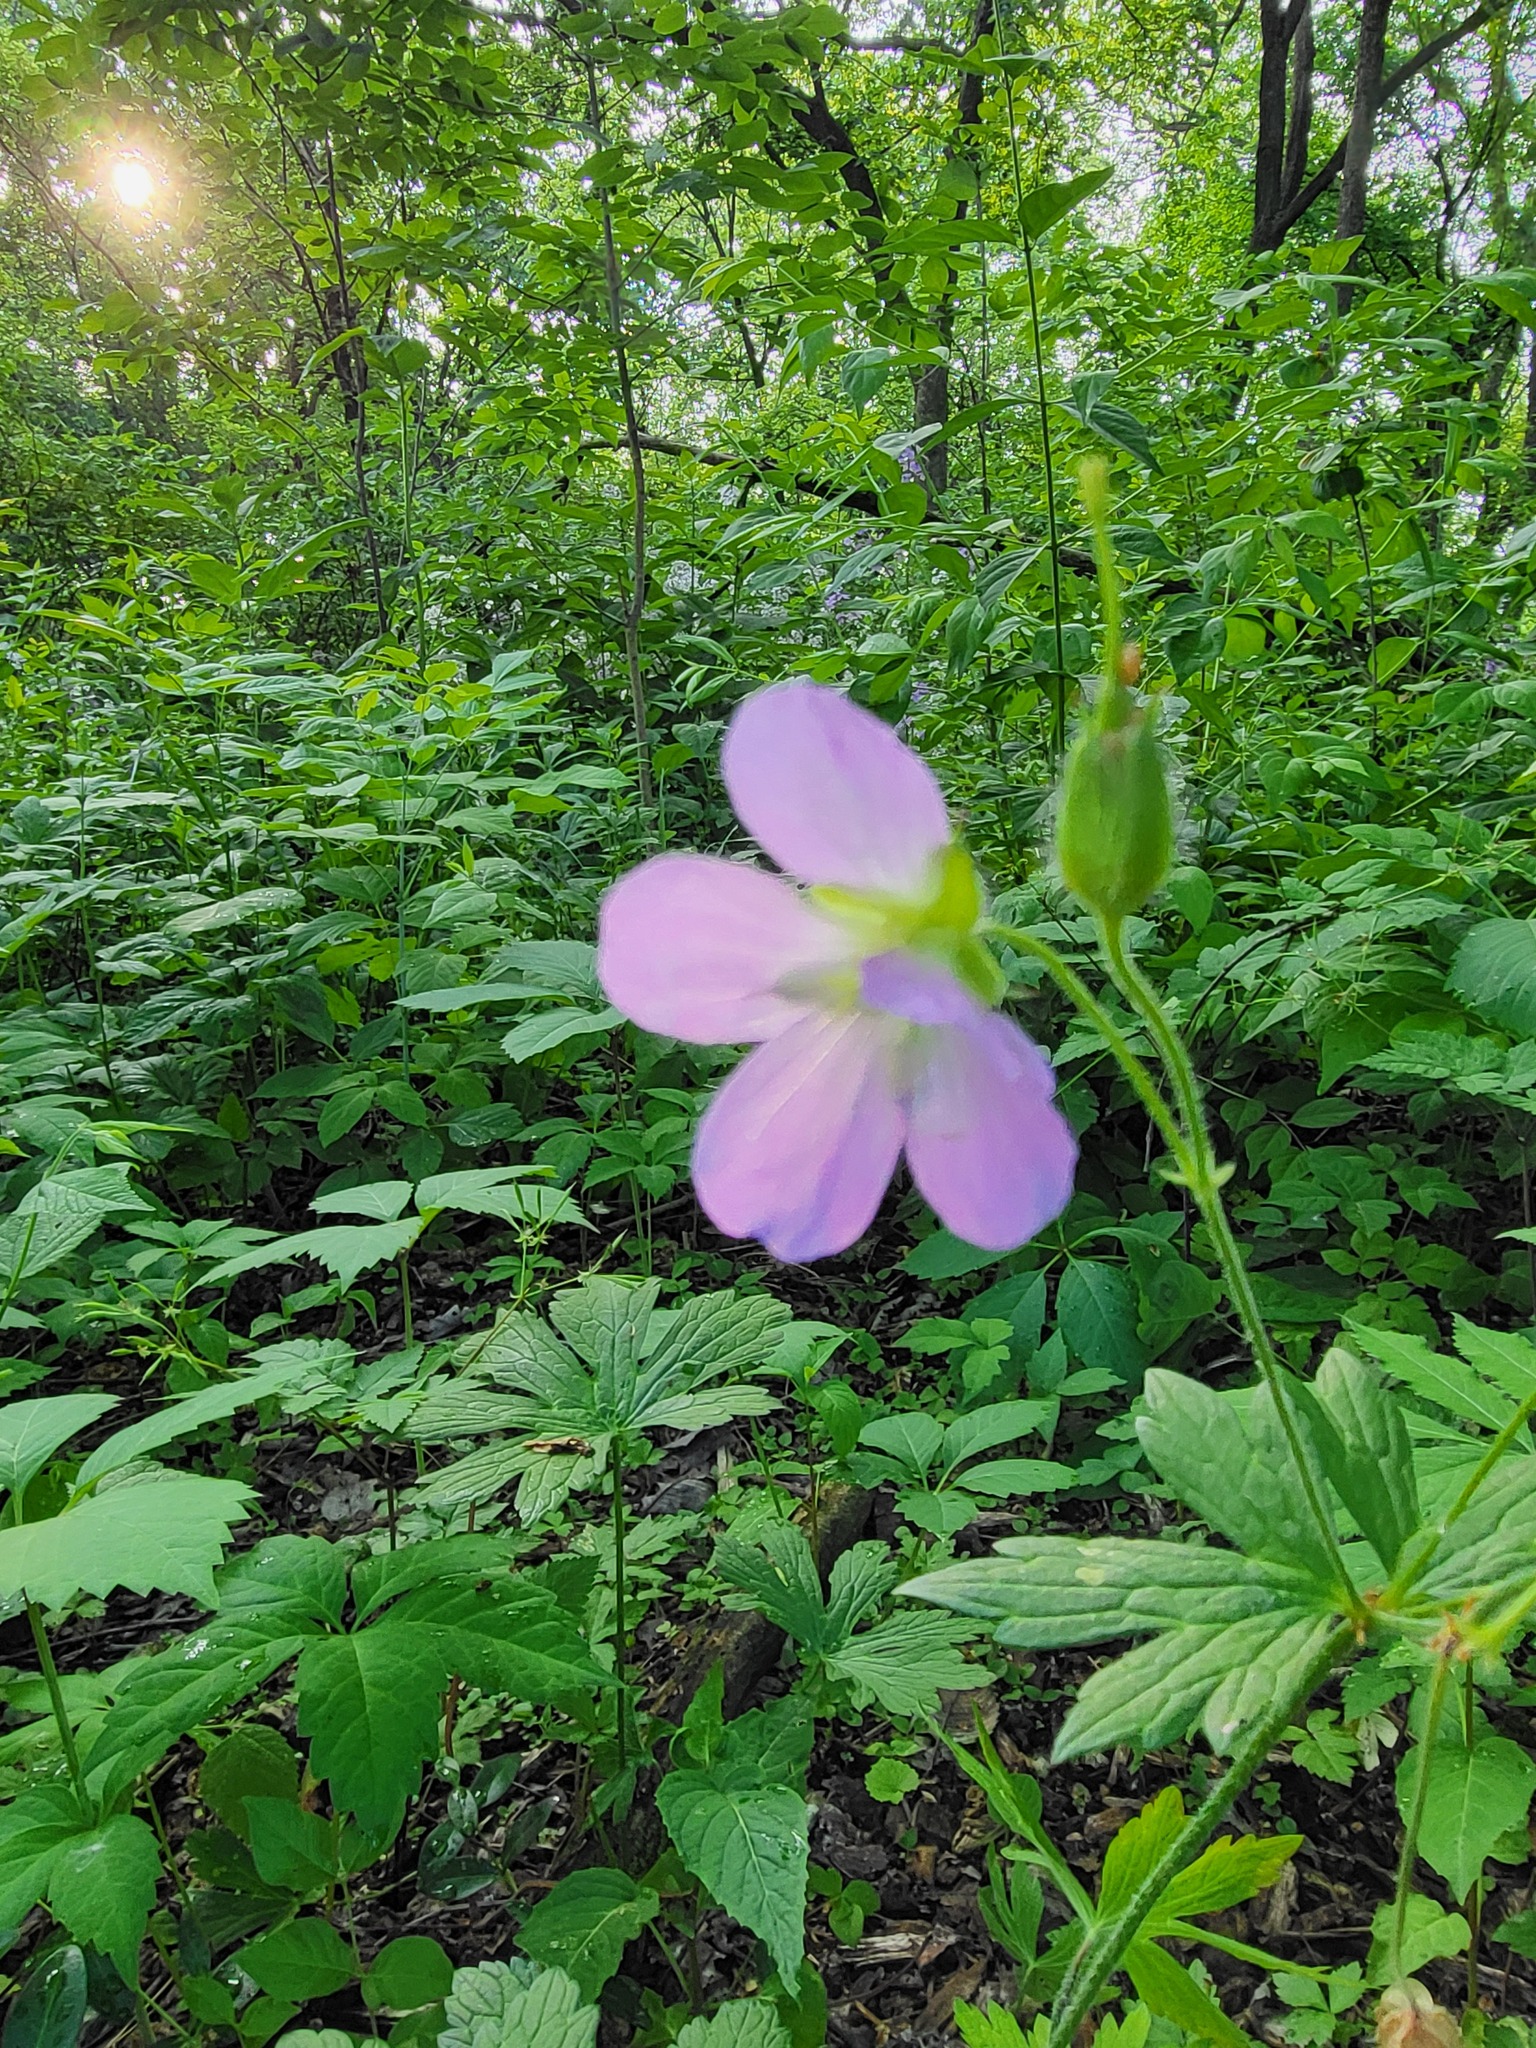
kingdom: Plantae
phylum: Tracheophyta
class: Magnoliopsida
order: Geraniales
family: Geraniaceae
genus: Geranium
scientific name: Geranium maculatum
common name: Spotted geranium
